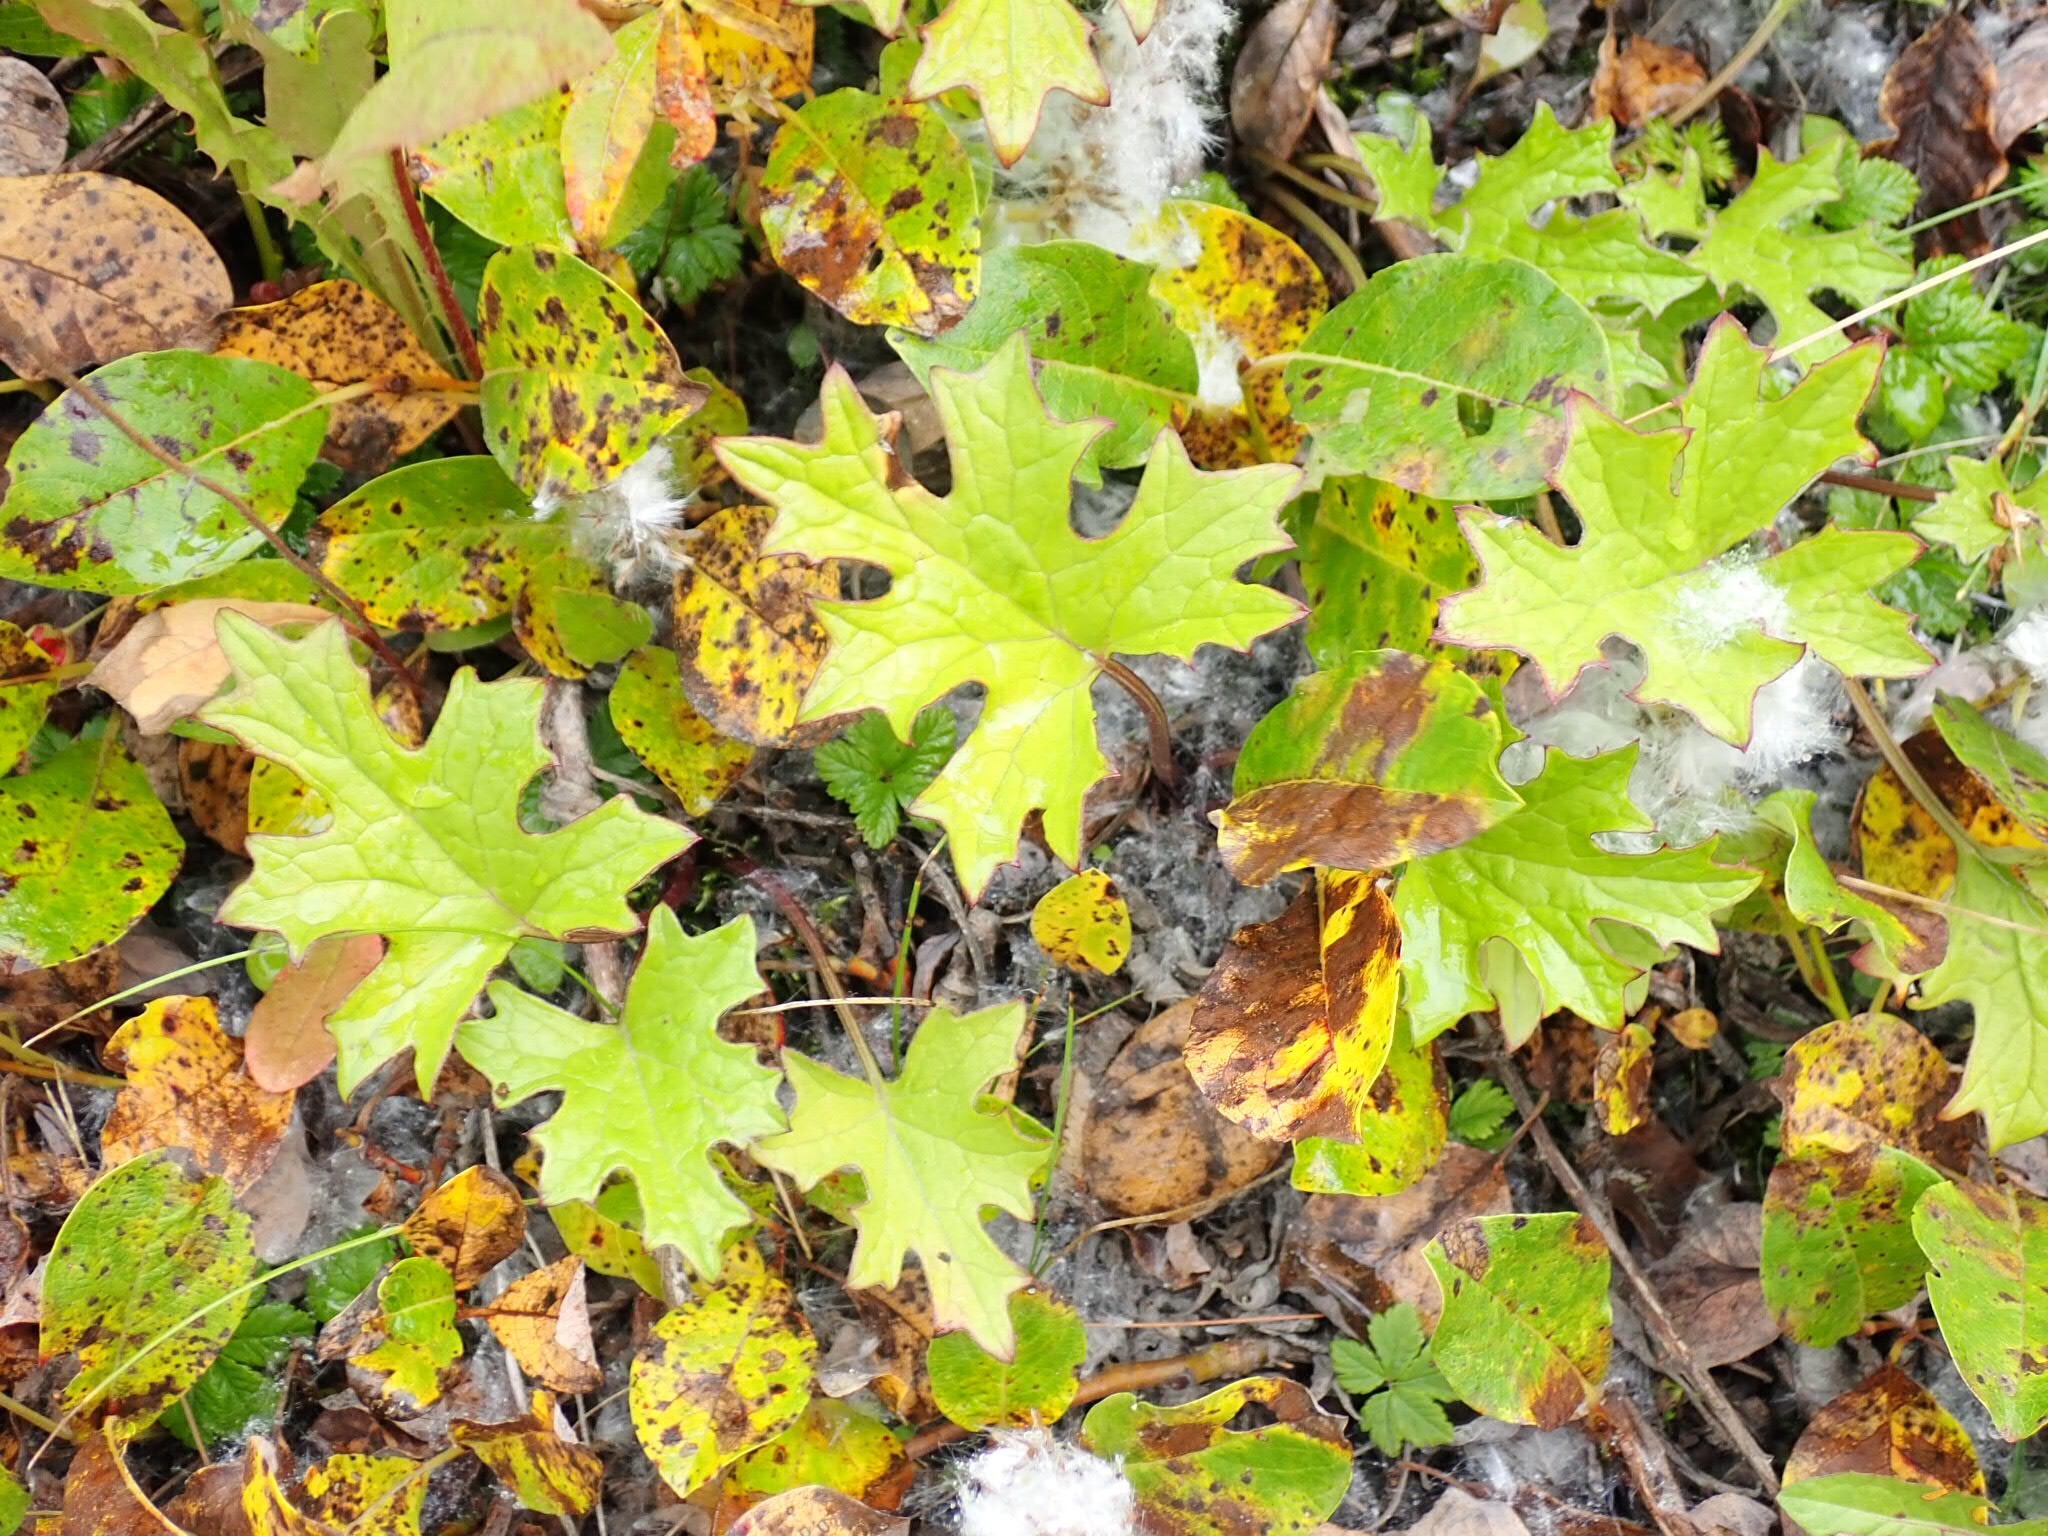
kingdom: Plantae
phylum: Tracheophyta
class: Magnoliopsida
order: Asterales
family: Asteraceae
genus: Petasites
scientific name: Petasites frigidus
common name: Arctic butterbur
